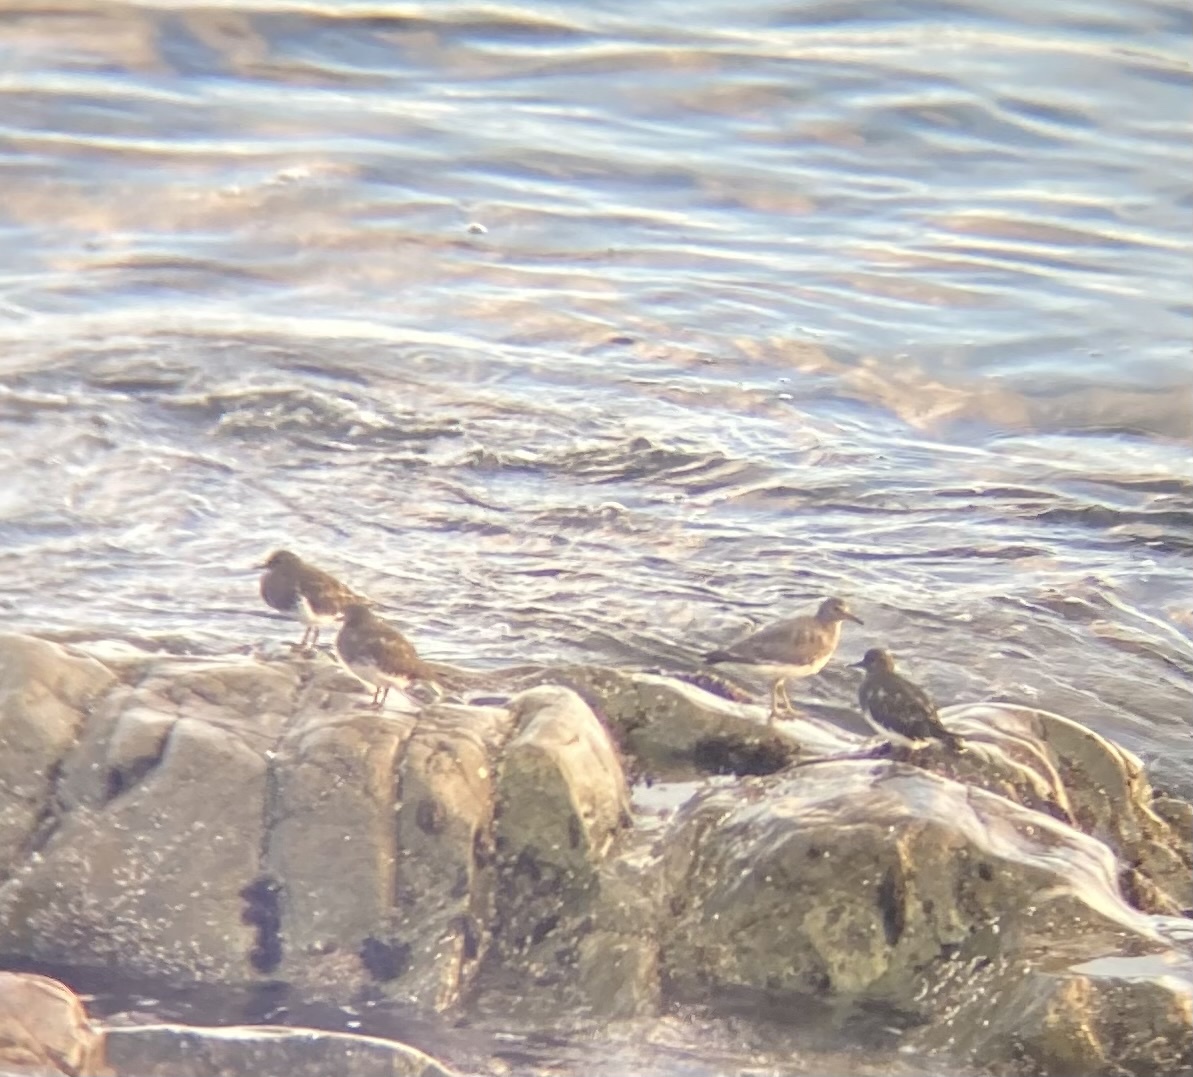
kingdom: Animalia
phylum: Chordata
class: Aves
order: Charadriiformes
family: Scolopacidae
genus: Arenaria
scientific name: Arenaria melanocephala
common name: Black turnstone
